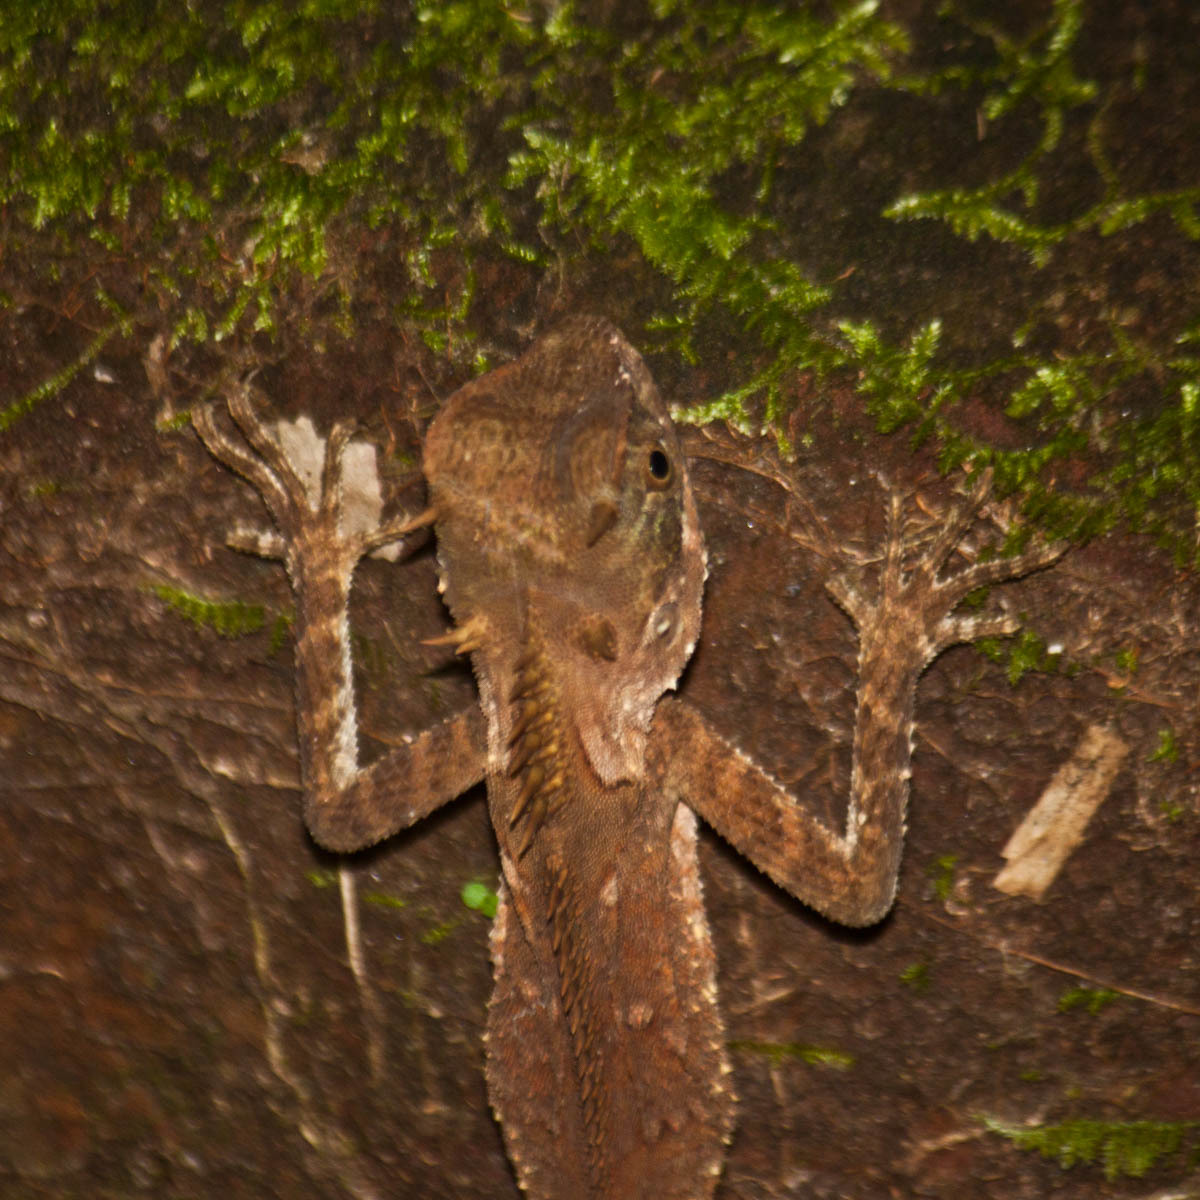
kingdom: Animalia
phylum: Chordata
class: Squamata
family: Agamidae
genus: Acanthosaura
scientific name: Acanthosaura cardamomensis
